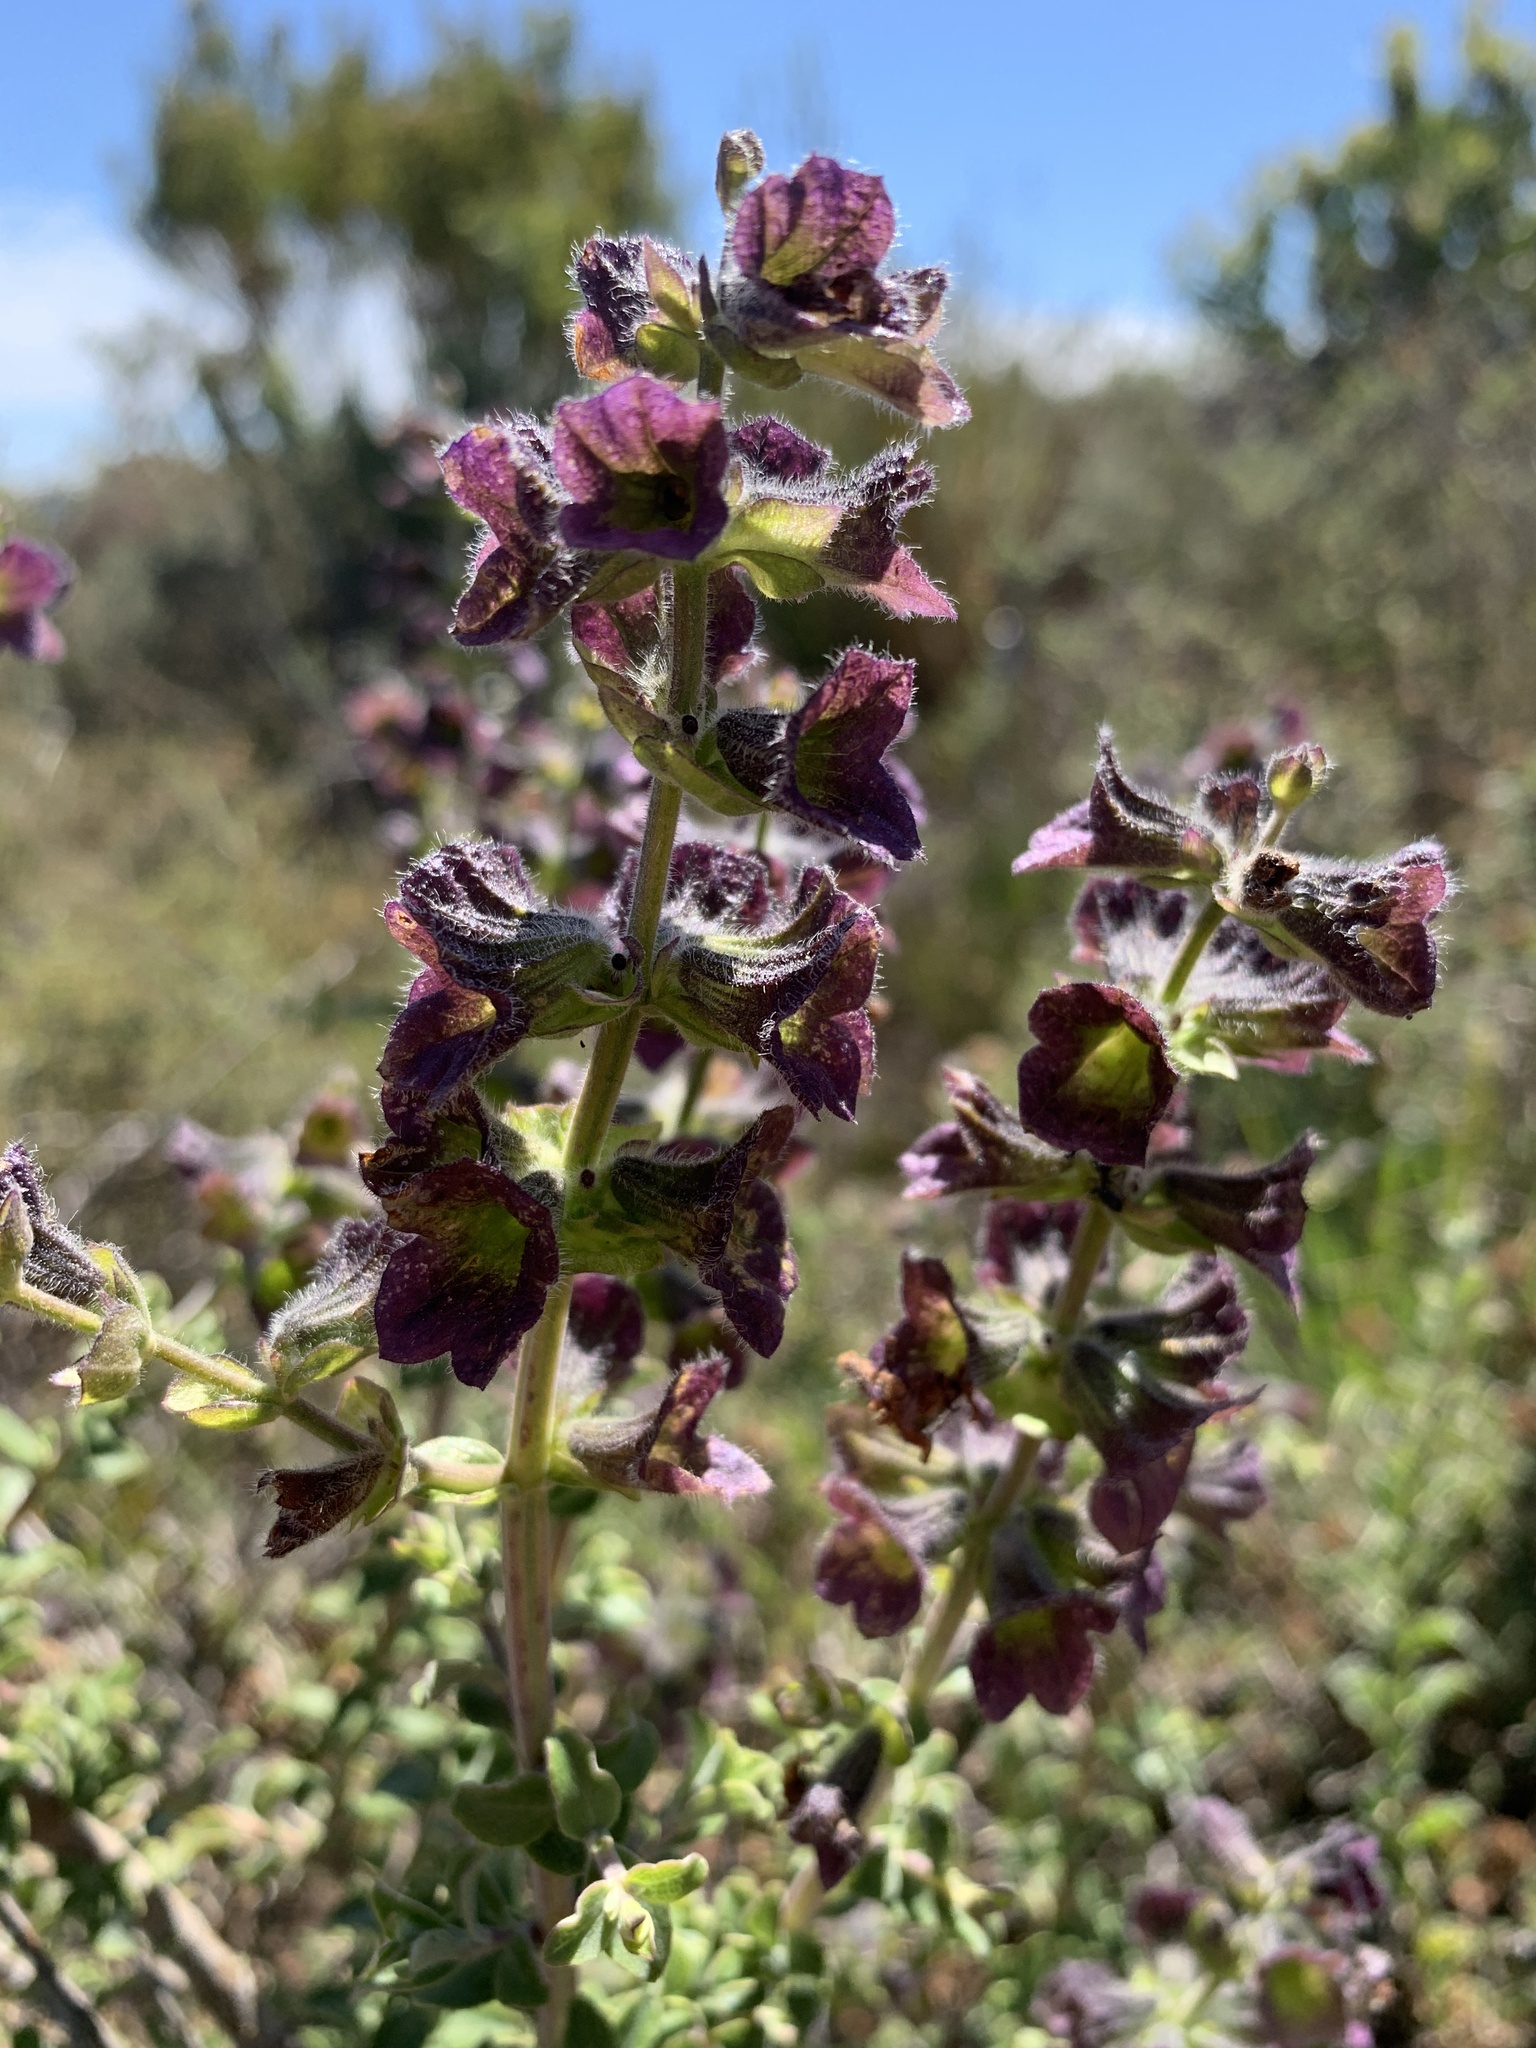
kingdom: Plantae
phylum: Tracheophyta
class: Magnoliopsida
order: Lamiales
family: Lamiaceae
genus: Salvia
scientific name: Salvia africana
